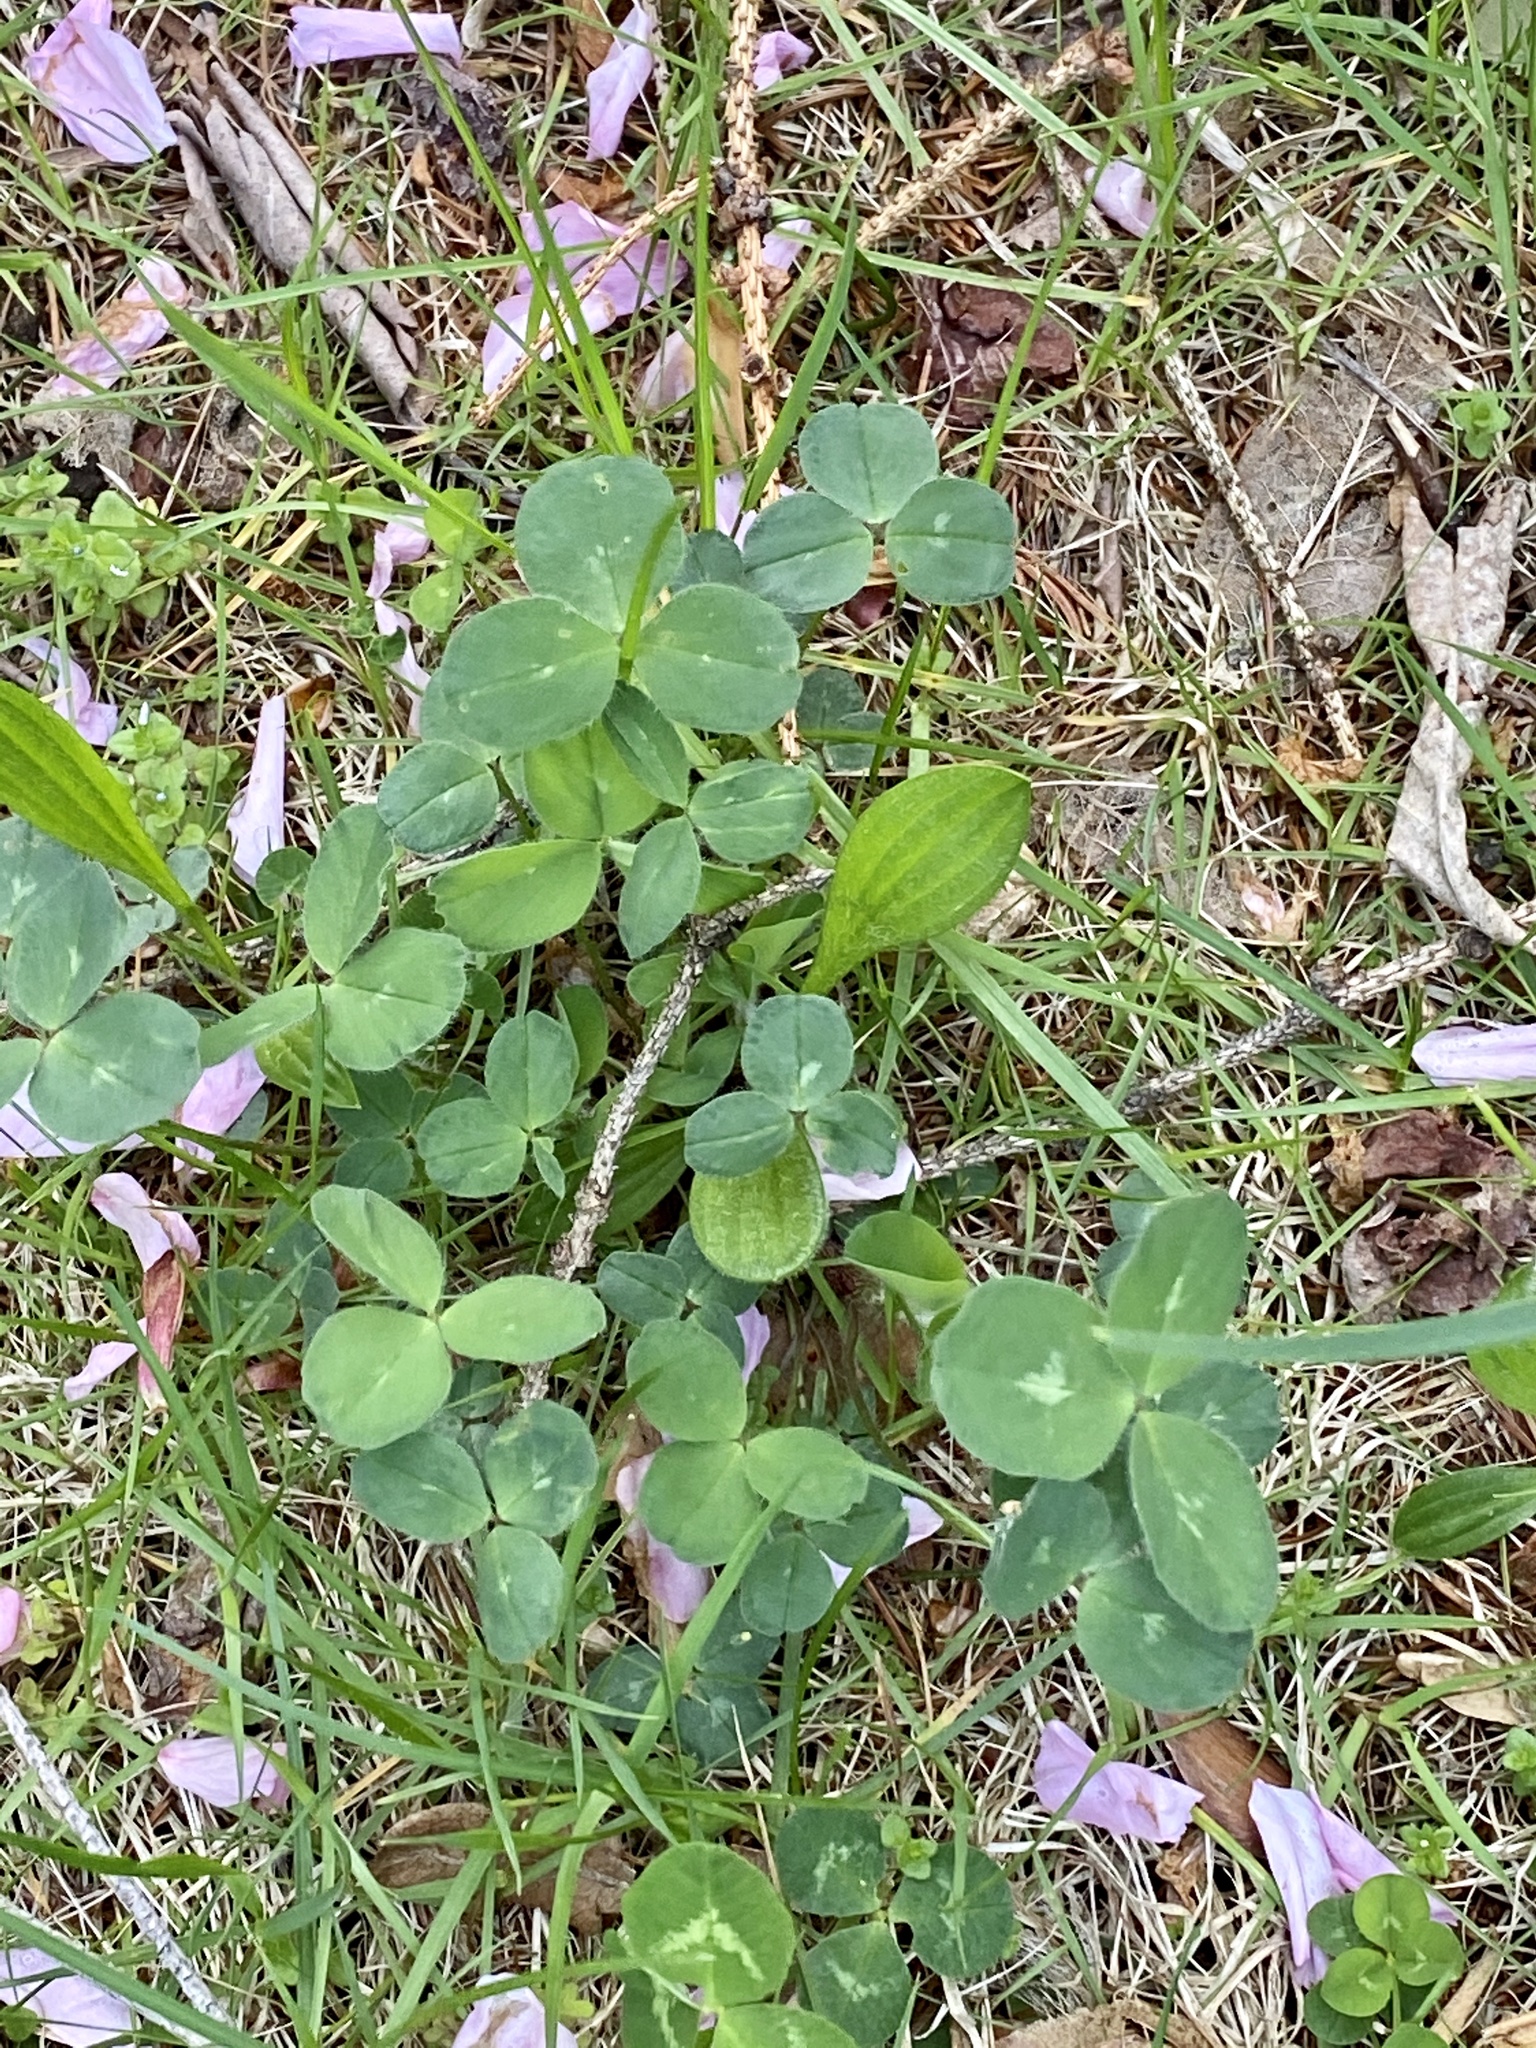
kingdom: Plantae
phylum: Tracheophyta
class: Magnoliopsida
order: Fabales
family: Fabaceae
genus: Trifolium
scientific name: Trifolium pratense
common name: Red clover
